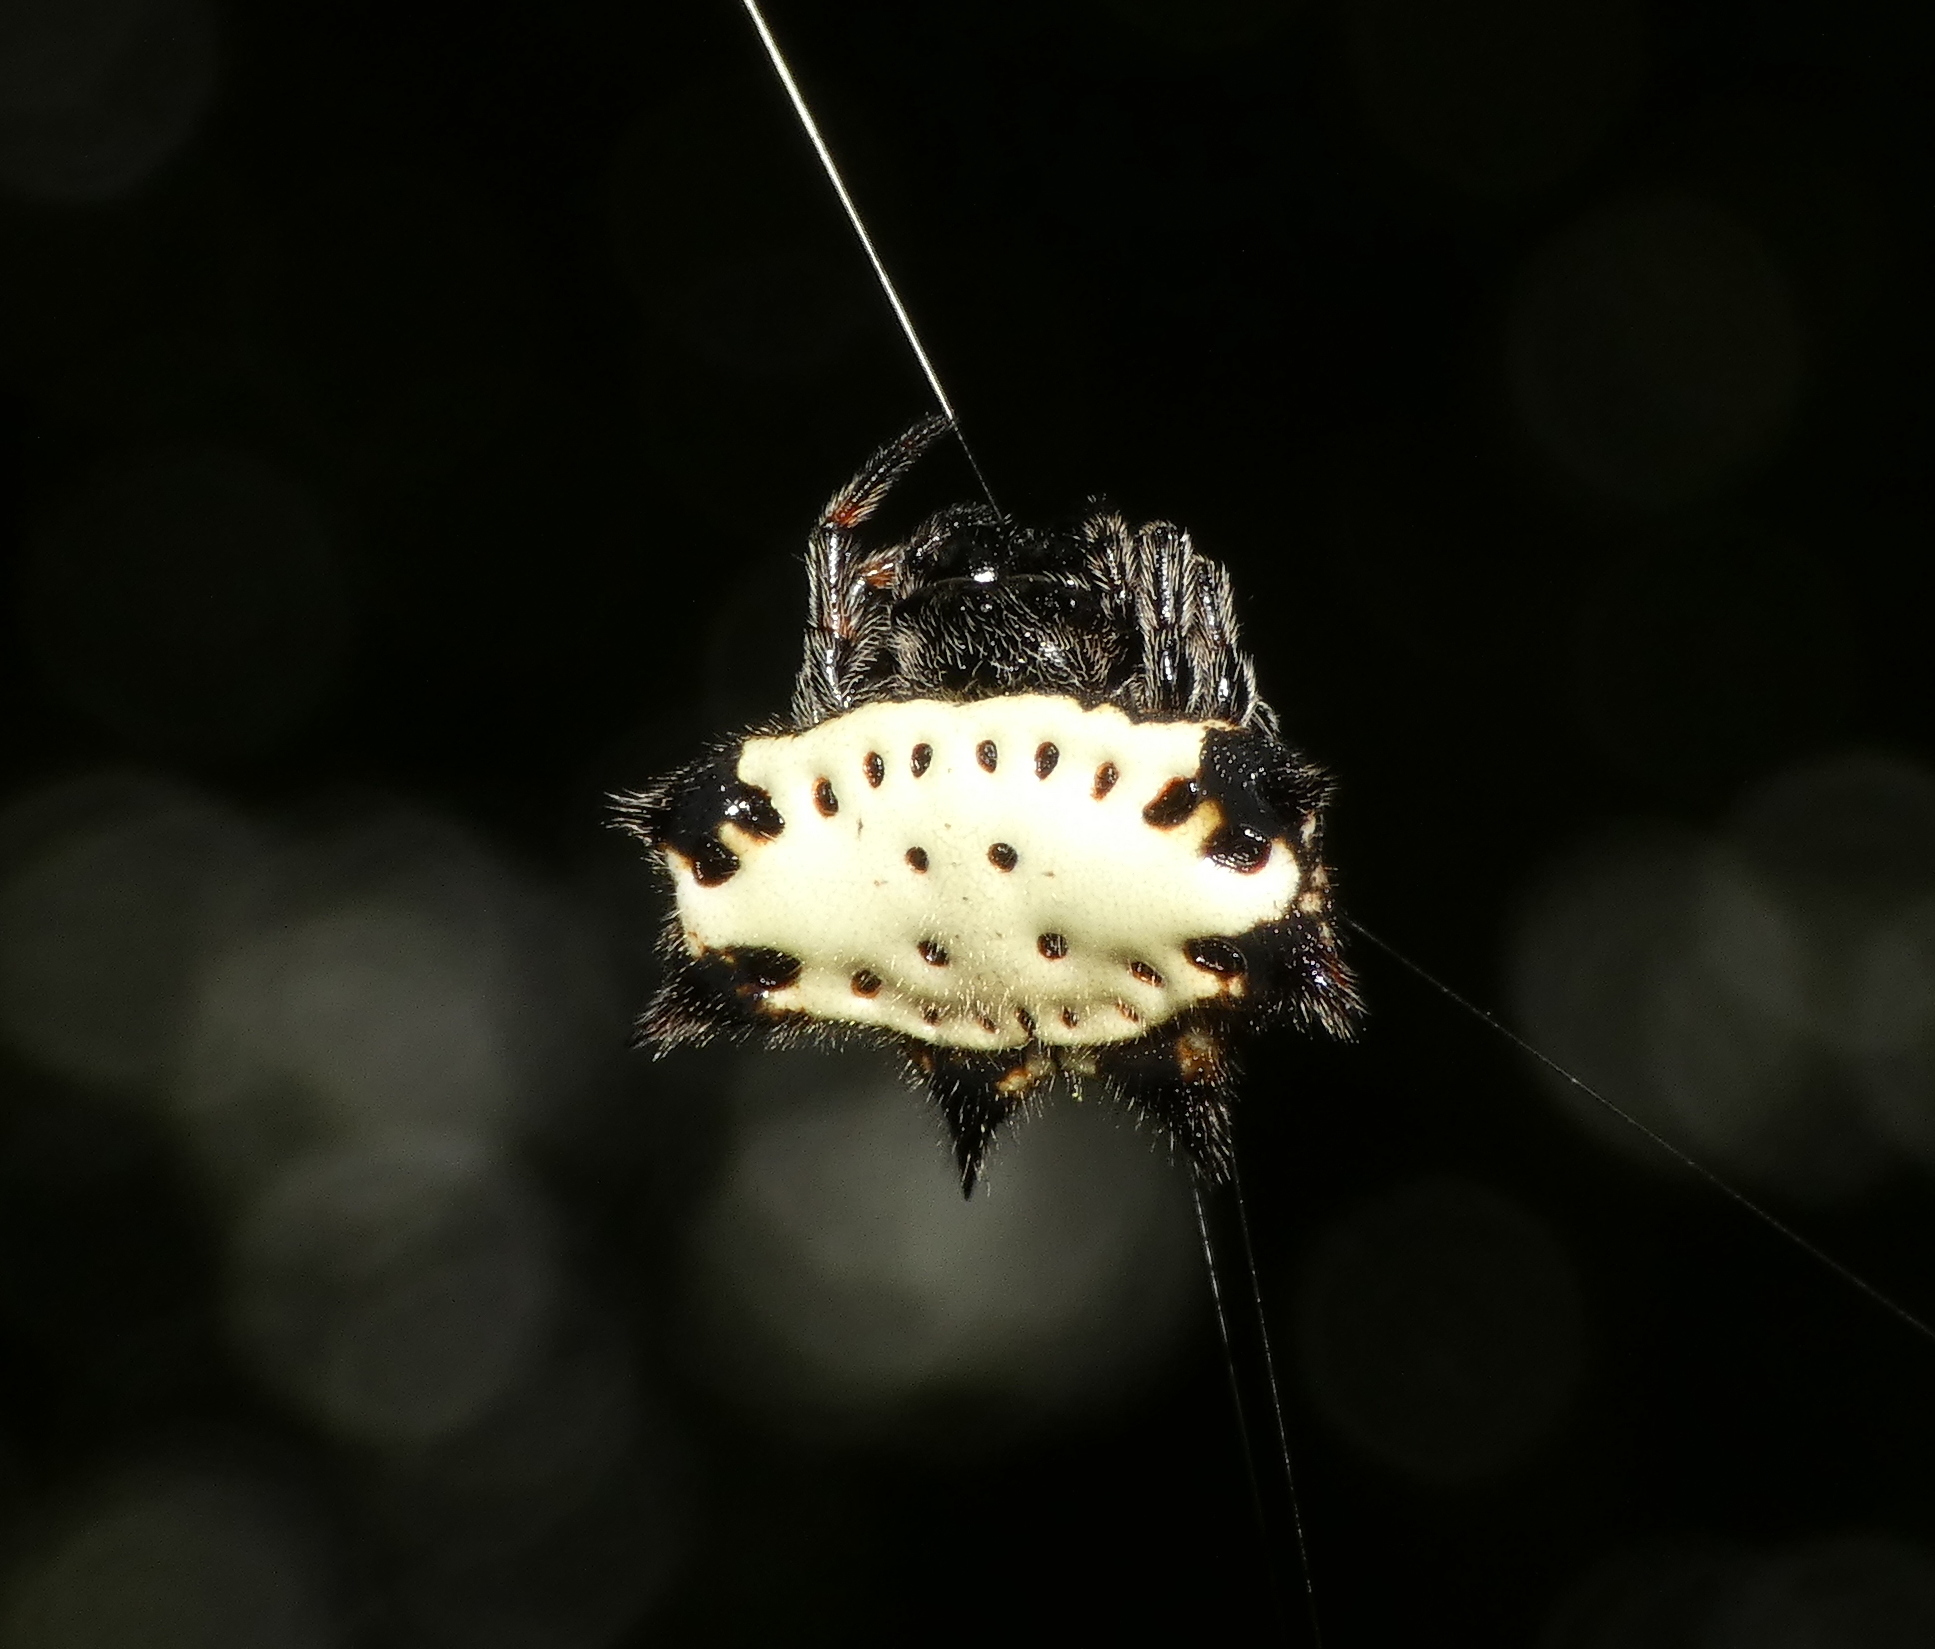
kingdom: Animalia
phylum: Arthropoda
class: Arachnida
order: Araneae
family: Araneidae
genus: Gasteracantha
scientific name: Gasteracantha cancriformis
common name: Orb weavers
